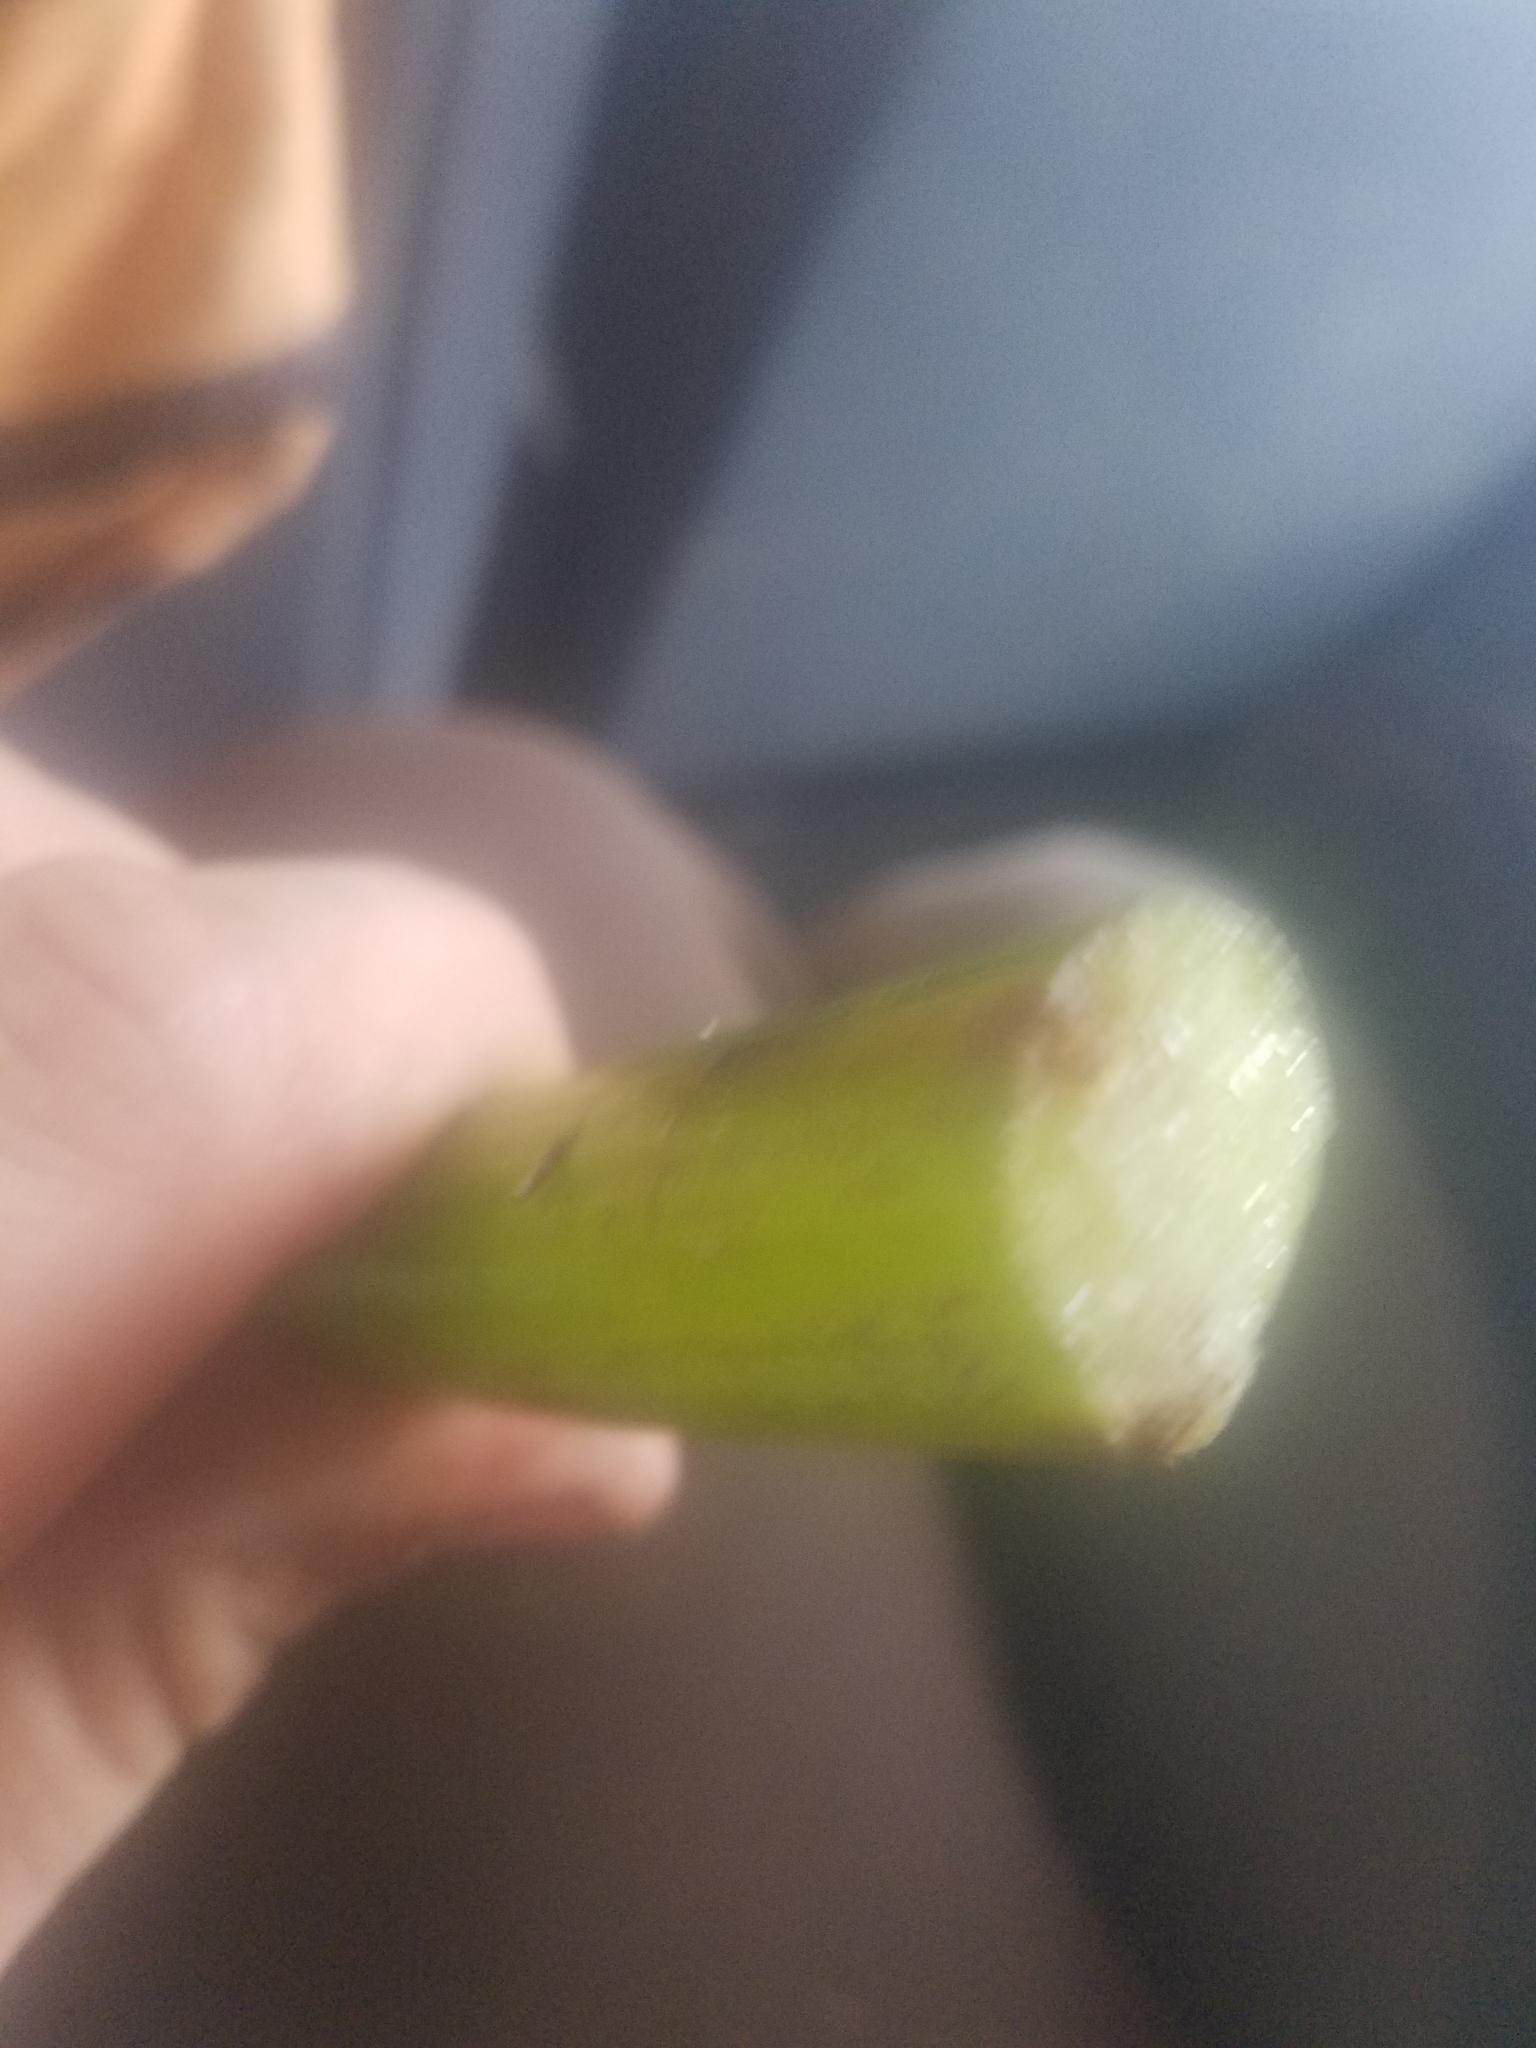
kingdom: Plantae
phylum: Tracheophyta
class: Magnoliopsida
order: Nymphaeales
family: Nymphaeaceae
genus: Nuphar
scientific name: Nuphar polysepala
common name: Rocky mountain cow-lily
